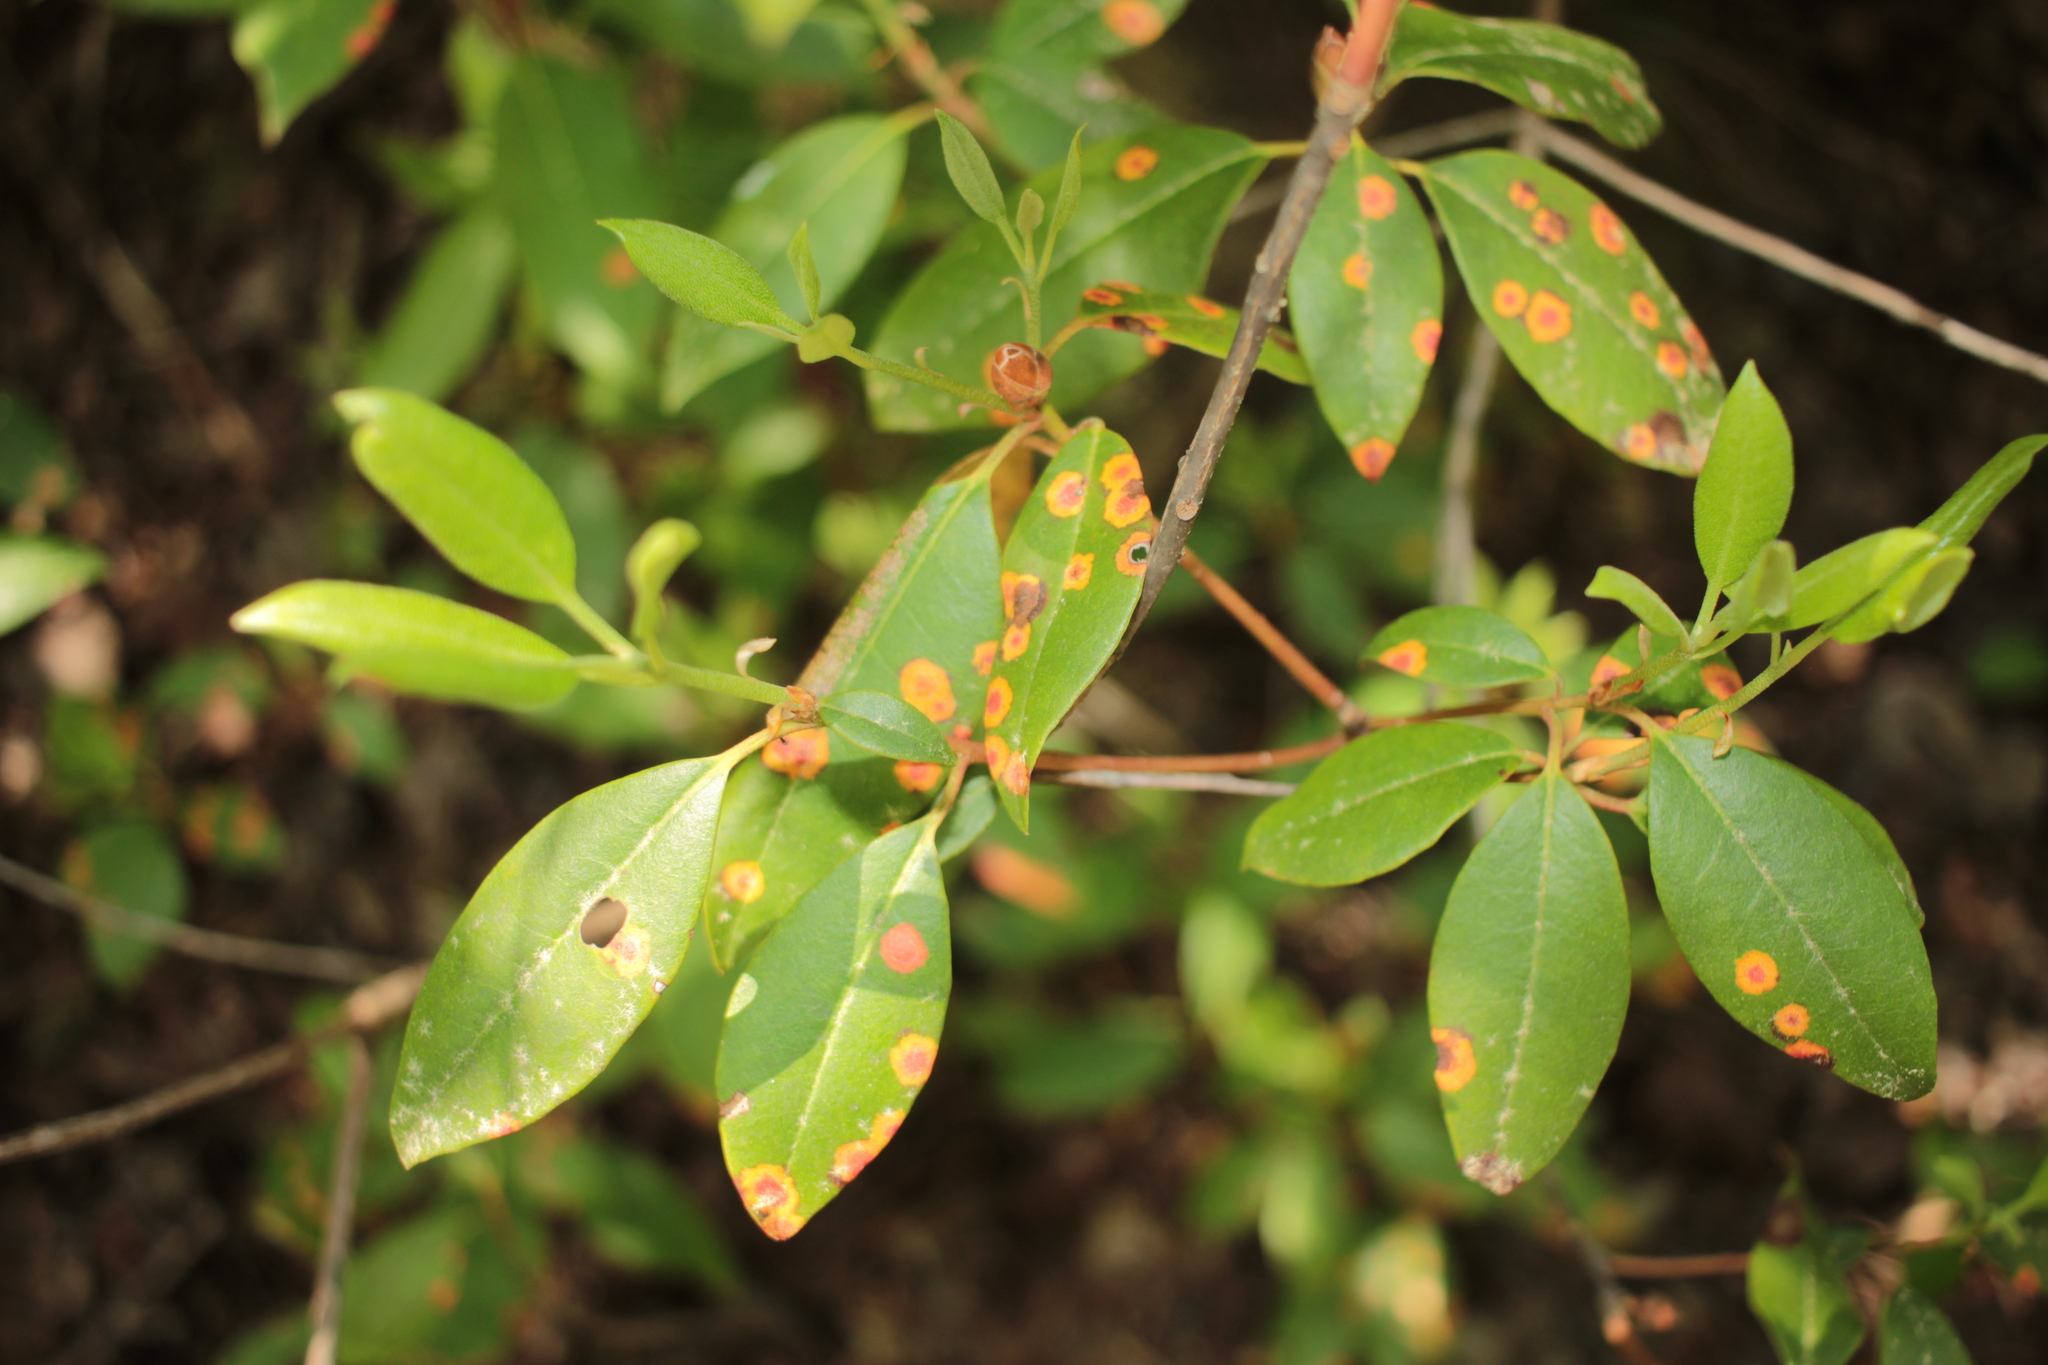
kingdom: Plantae
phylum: Tracheophyta
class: Magnoliopsida
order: Ericales
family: Ericaceae
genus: Rhododendron
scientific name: Rhododendron minus
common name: Piedmont rhododendron
